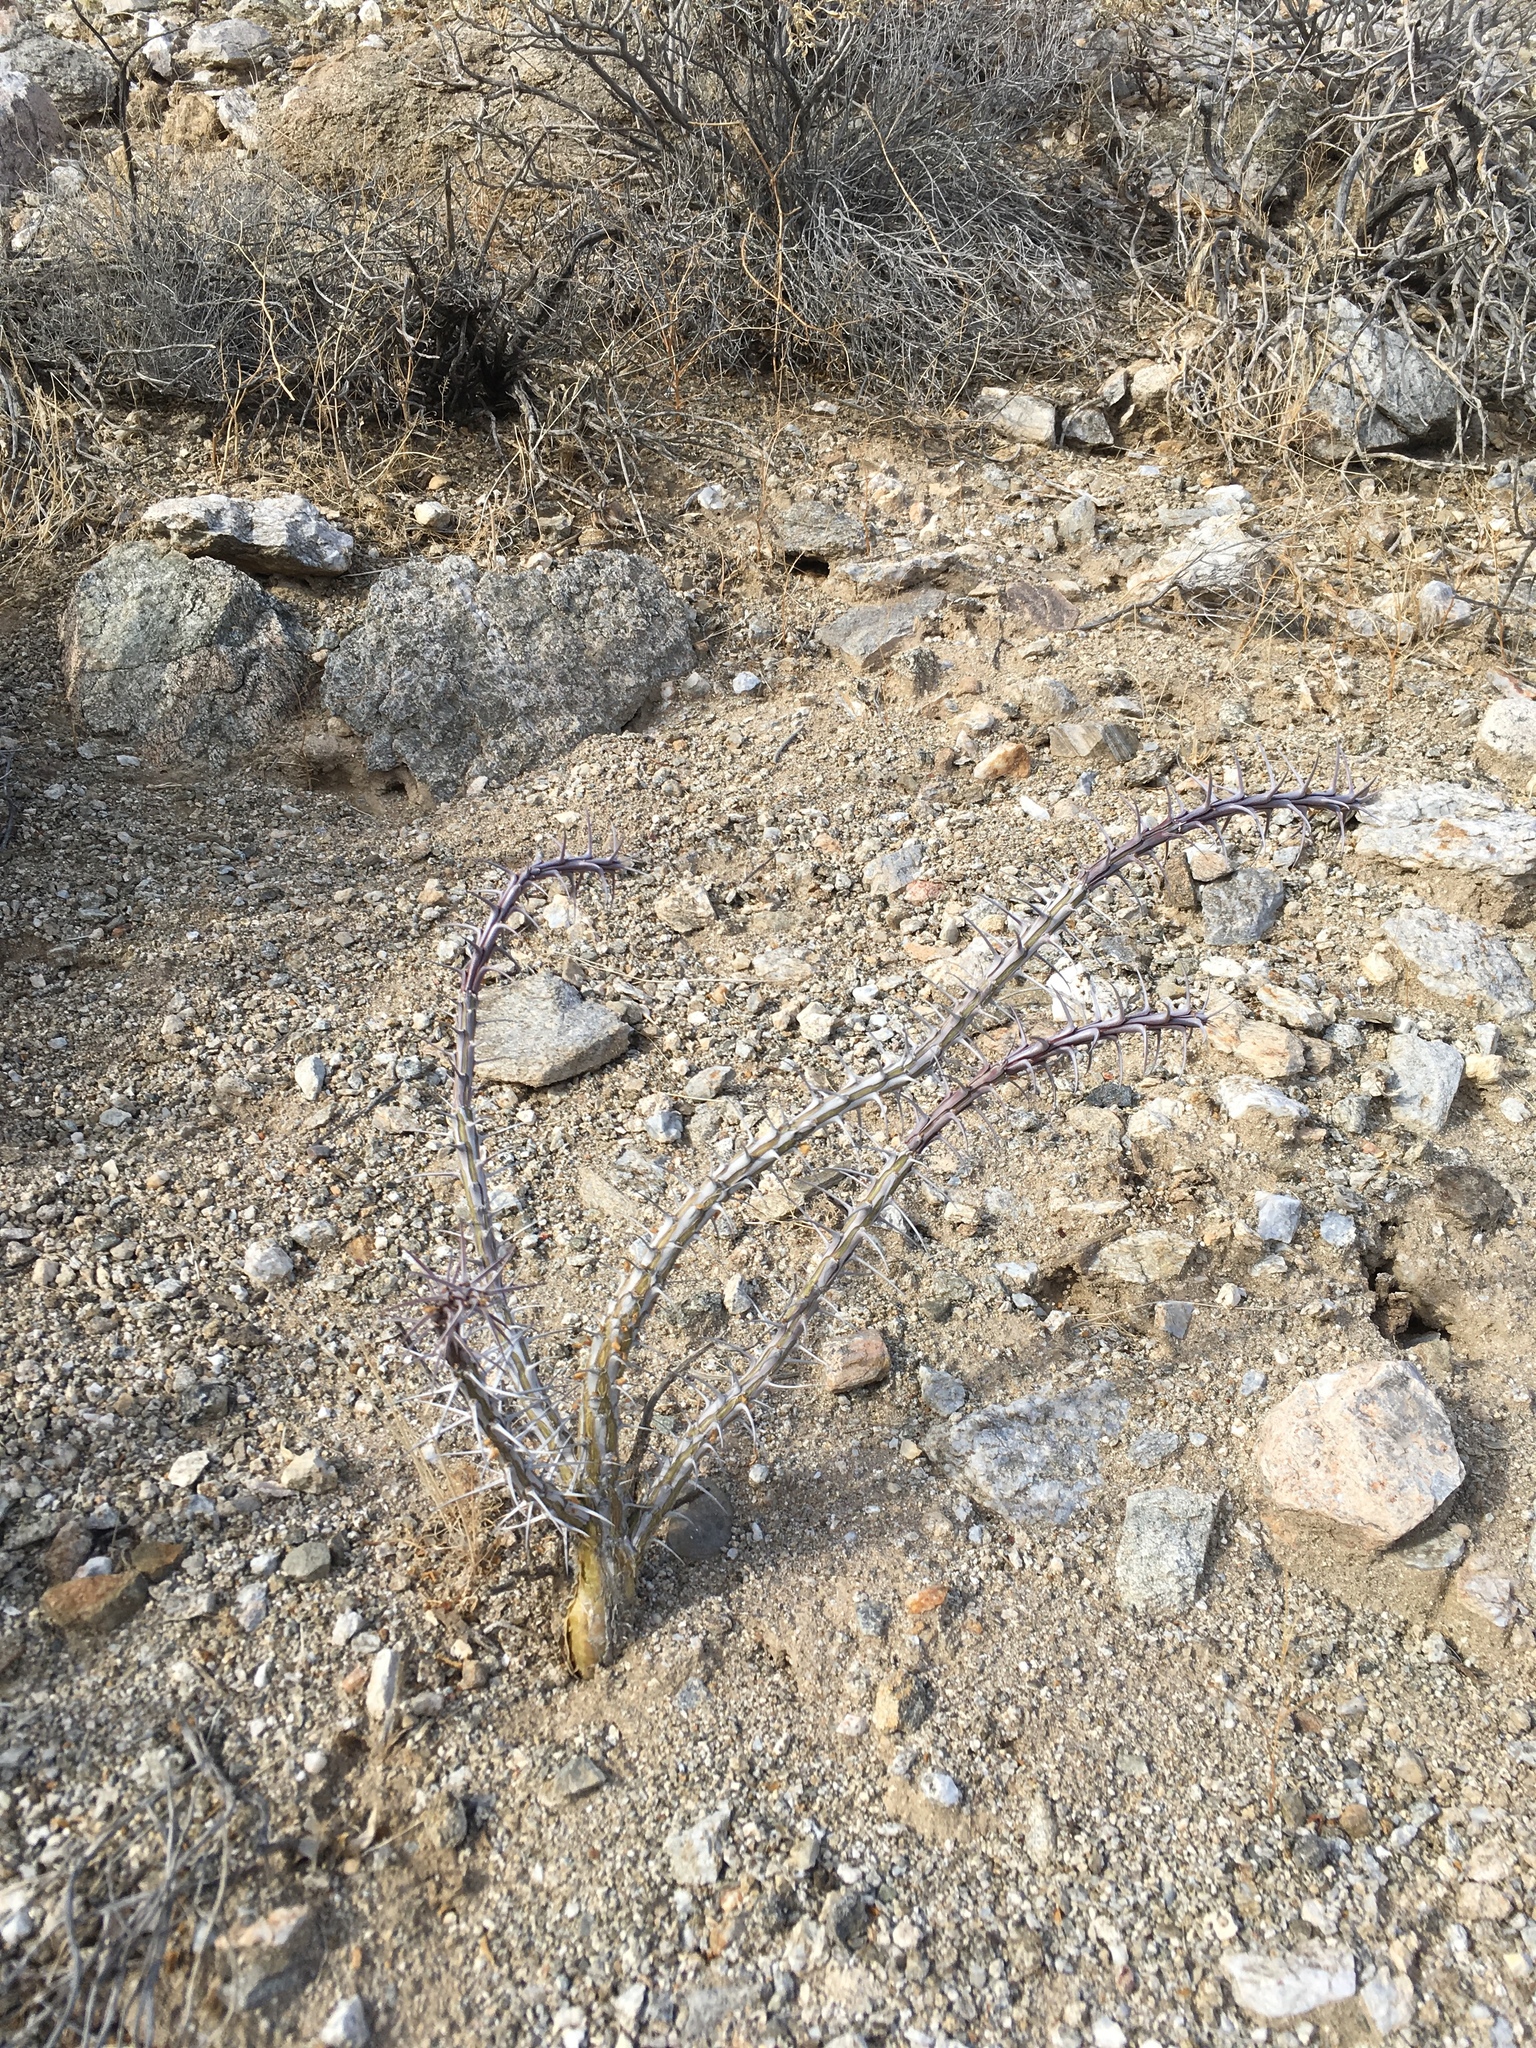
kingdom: Plantae
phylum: Tracheophyta
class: Magnoliopsida
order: Ericales
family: Fouquieriaceae
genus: Fouquieria
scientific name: Fouquieria splendens
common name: Vine-cactus
